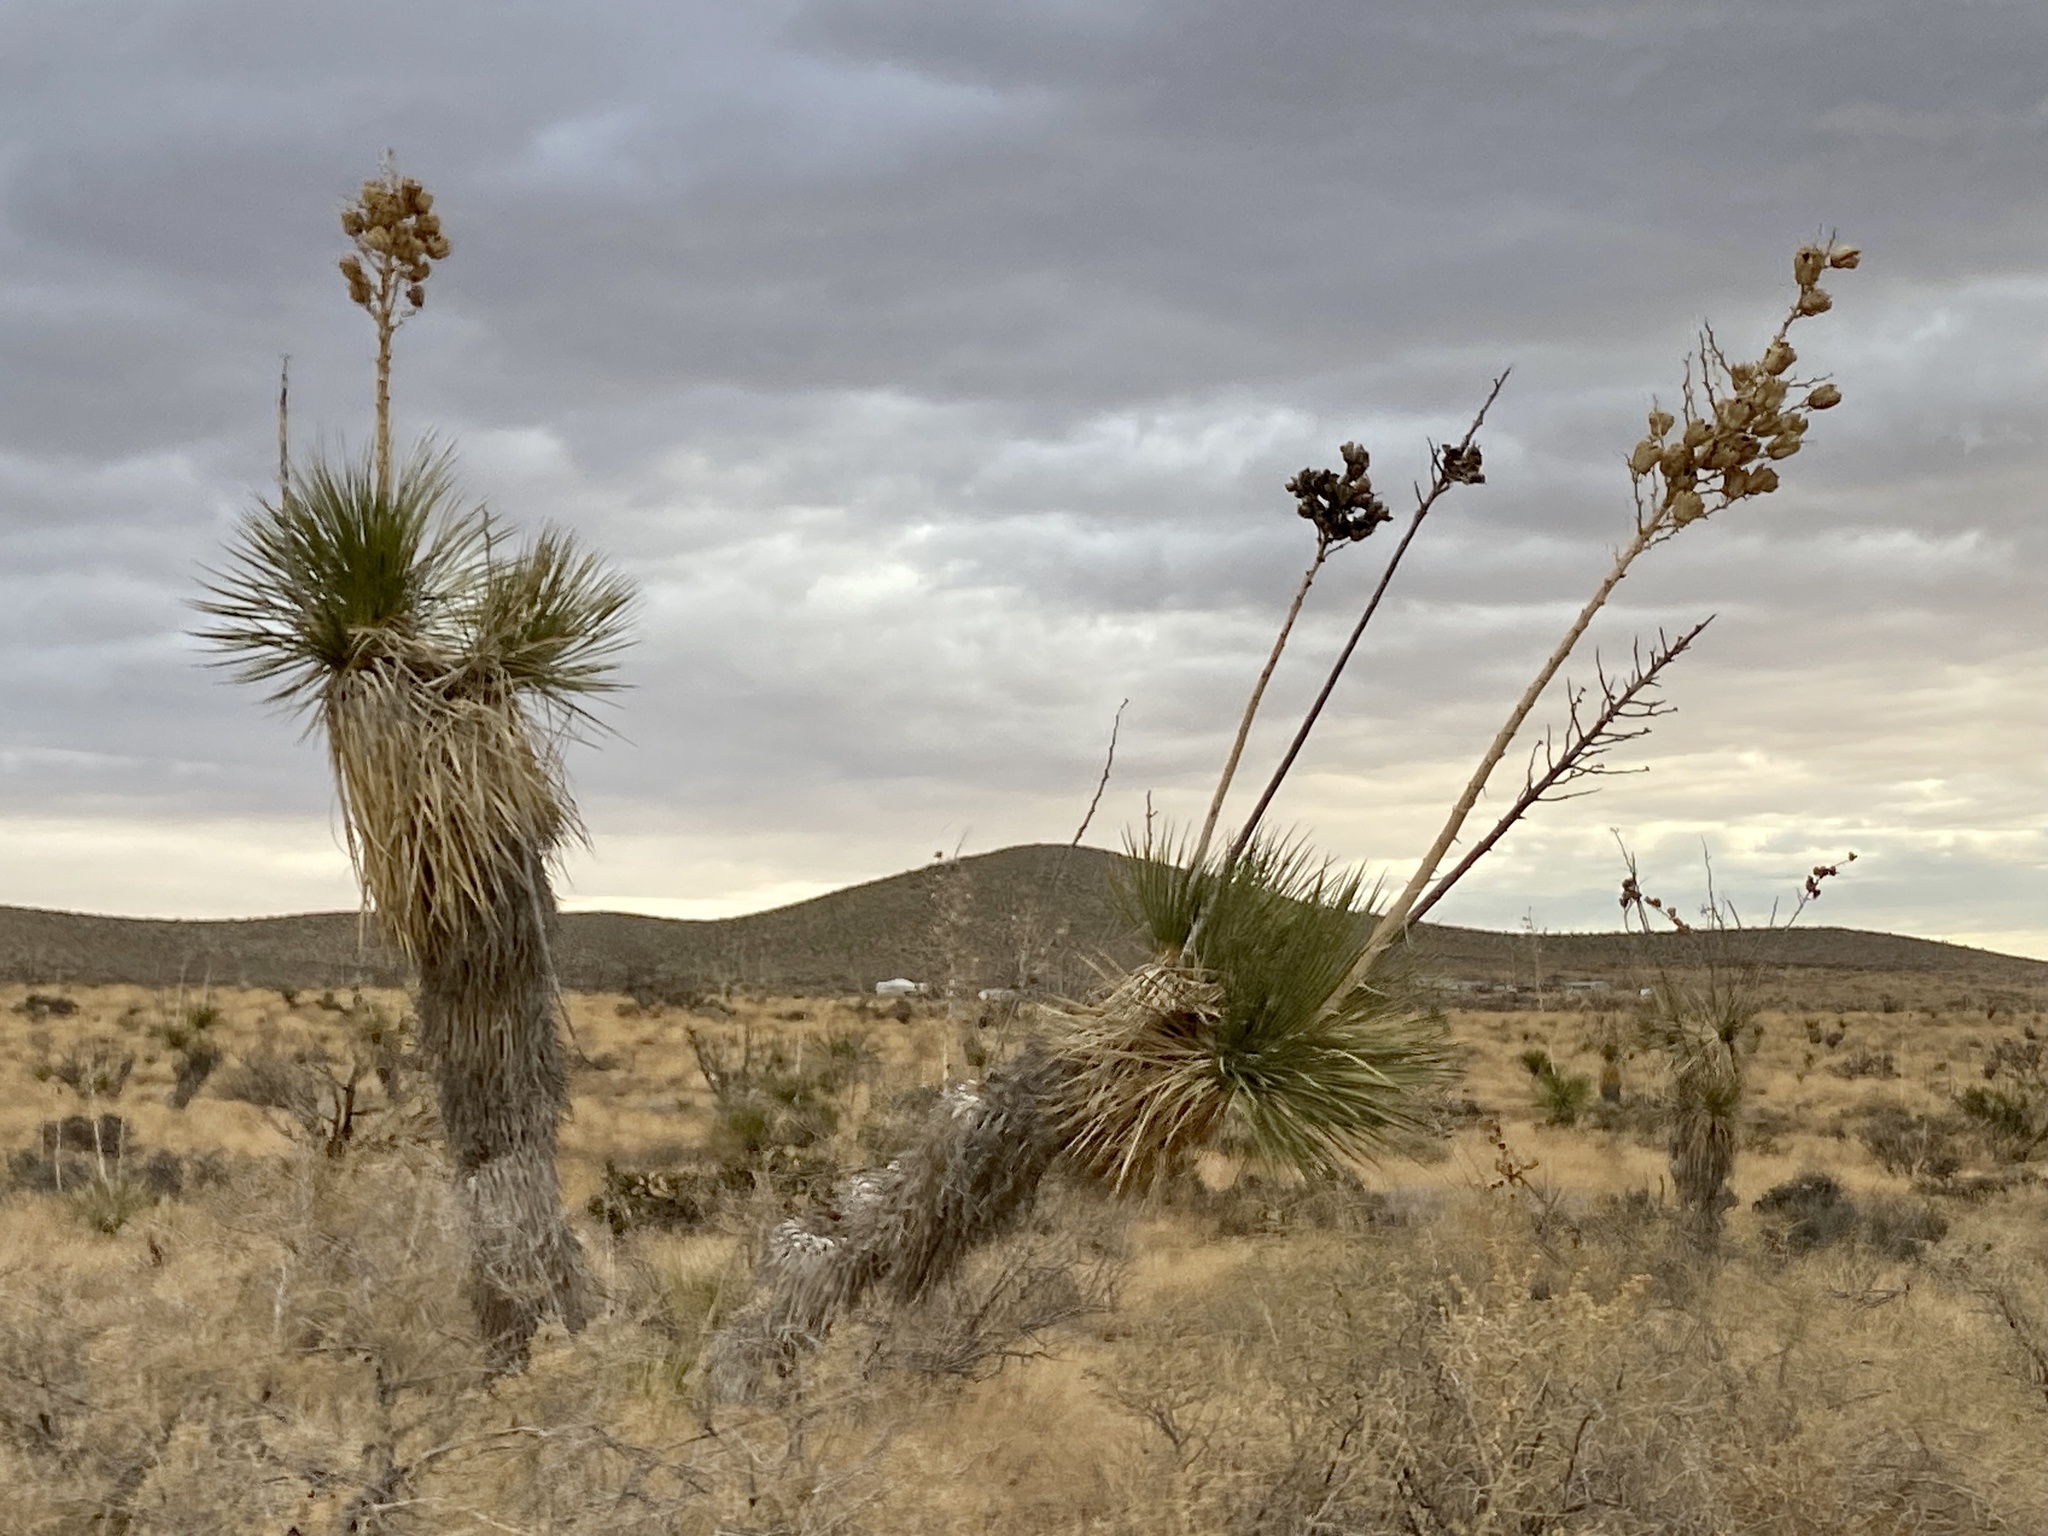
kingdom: Plantae
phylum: Tracheophyta
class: Liliopsida
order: Asparagales
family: Asparagaceae
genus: Yucca
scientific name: Yucca elata
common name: Palmella
